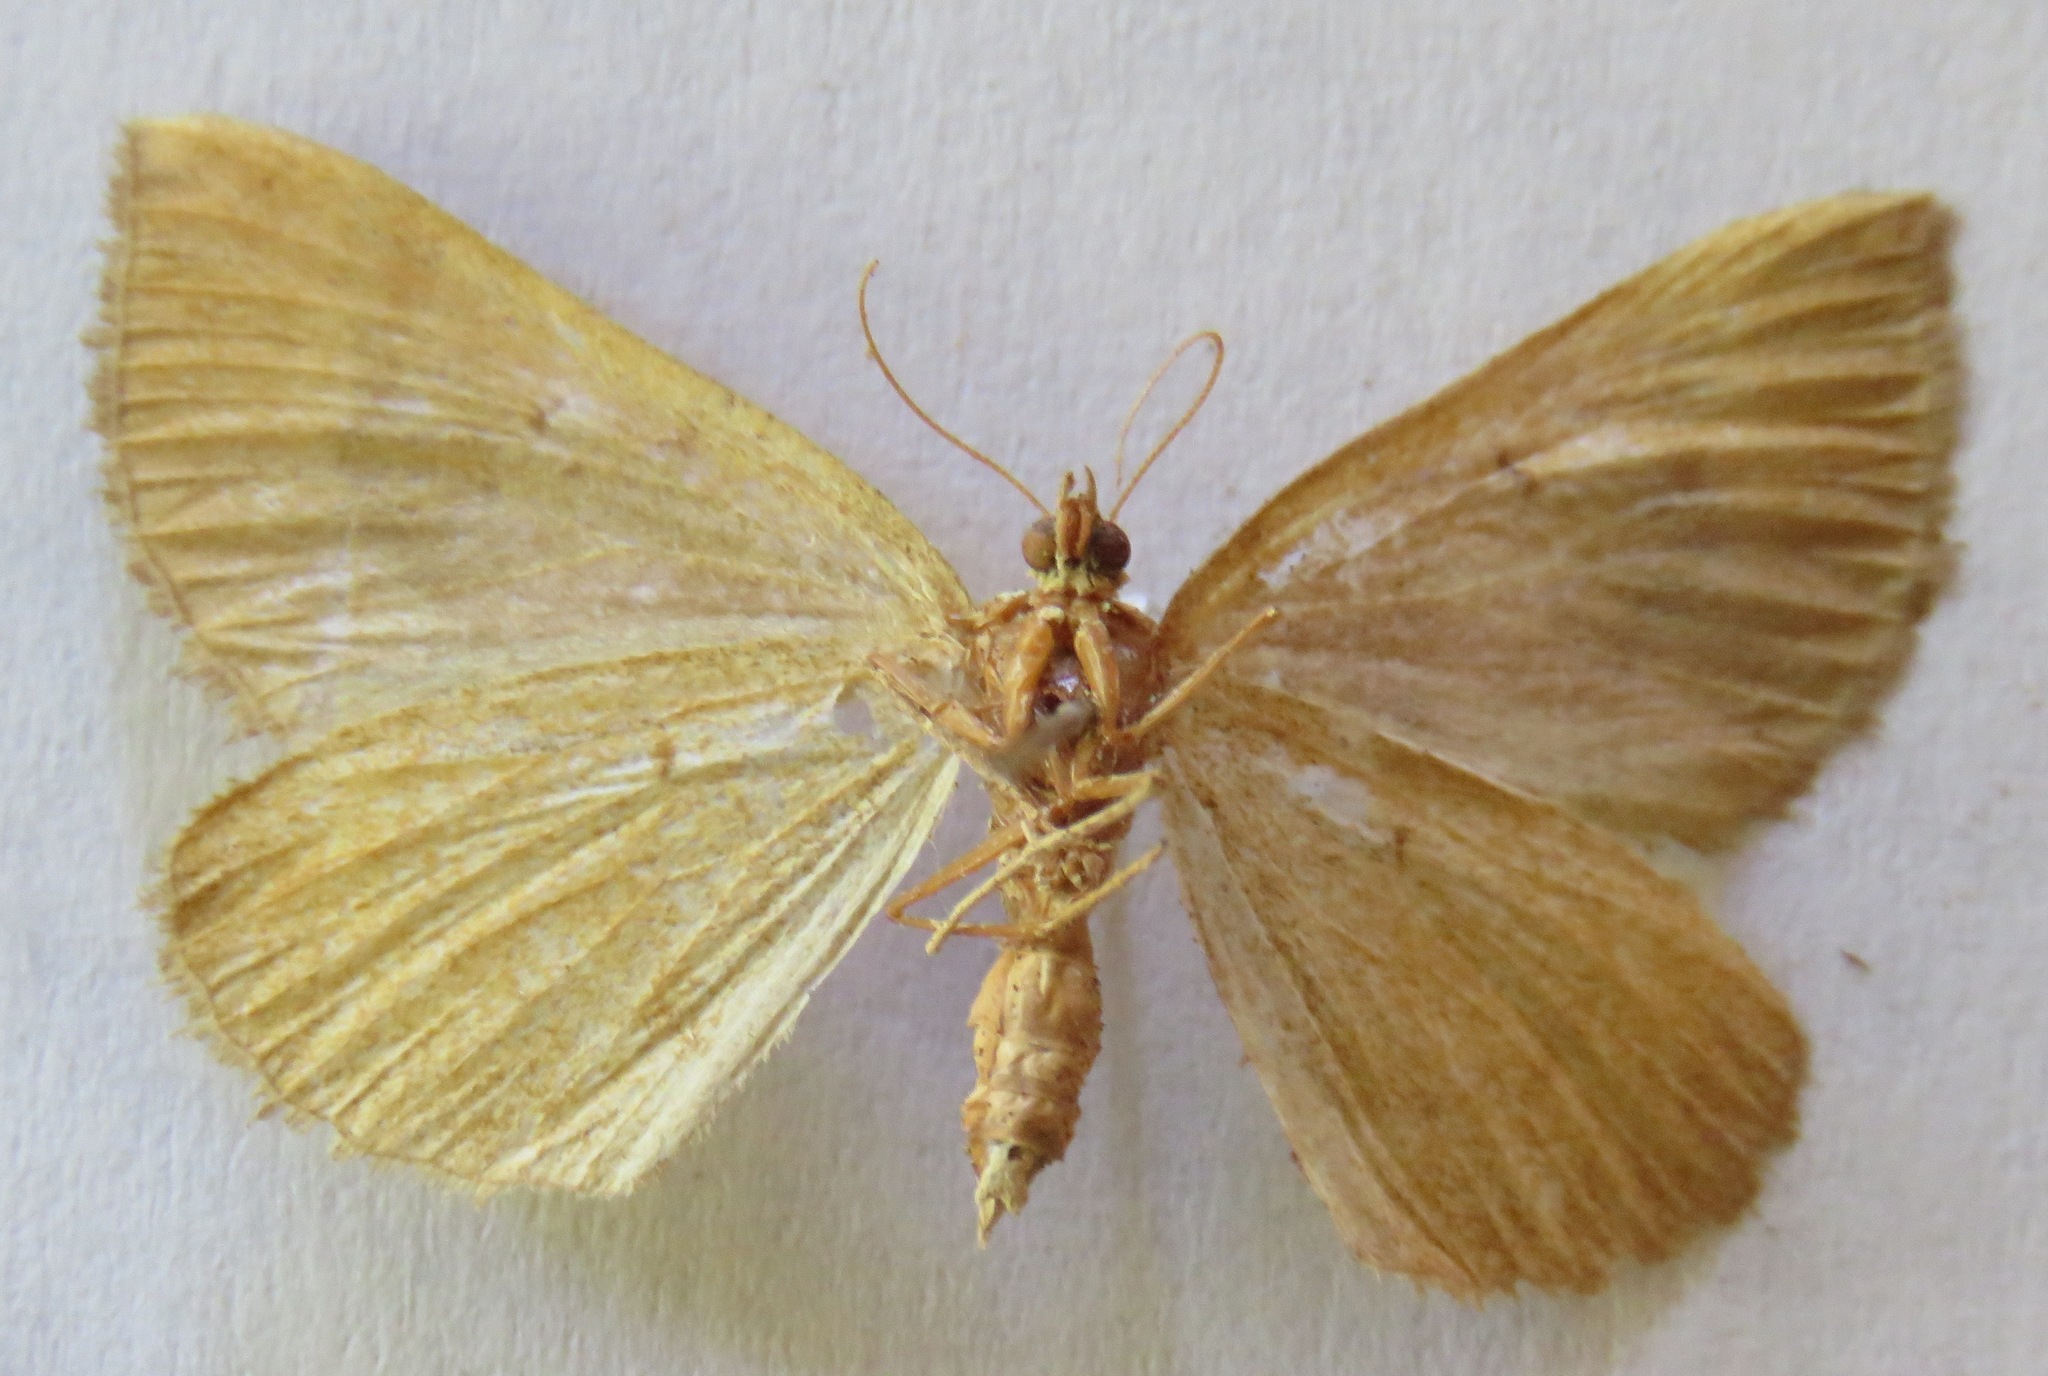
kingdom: Animalia
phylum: Arthropoda
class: Insecta
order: Lepidoptera
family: Geometridae
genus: Scotopteryx
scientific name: Scotopteryx chenopodiata
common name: Shaded broad-bar
